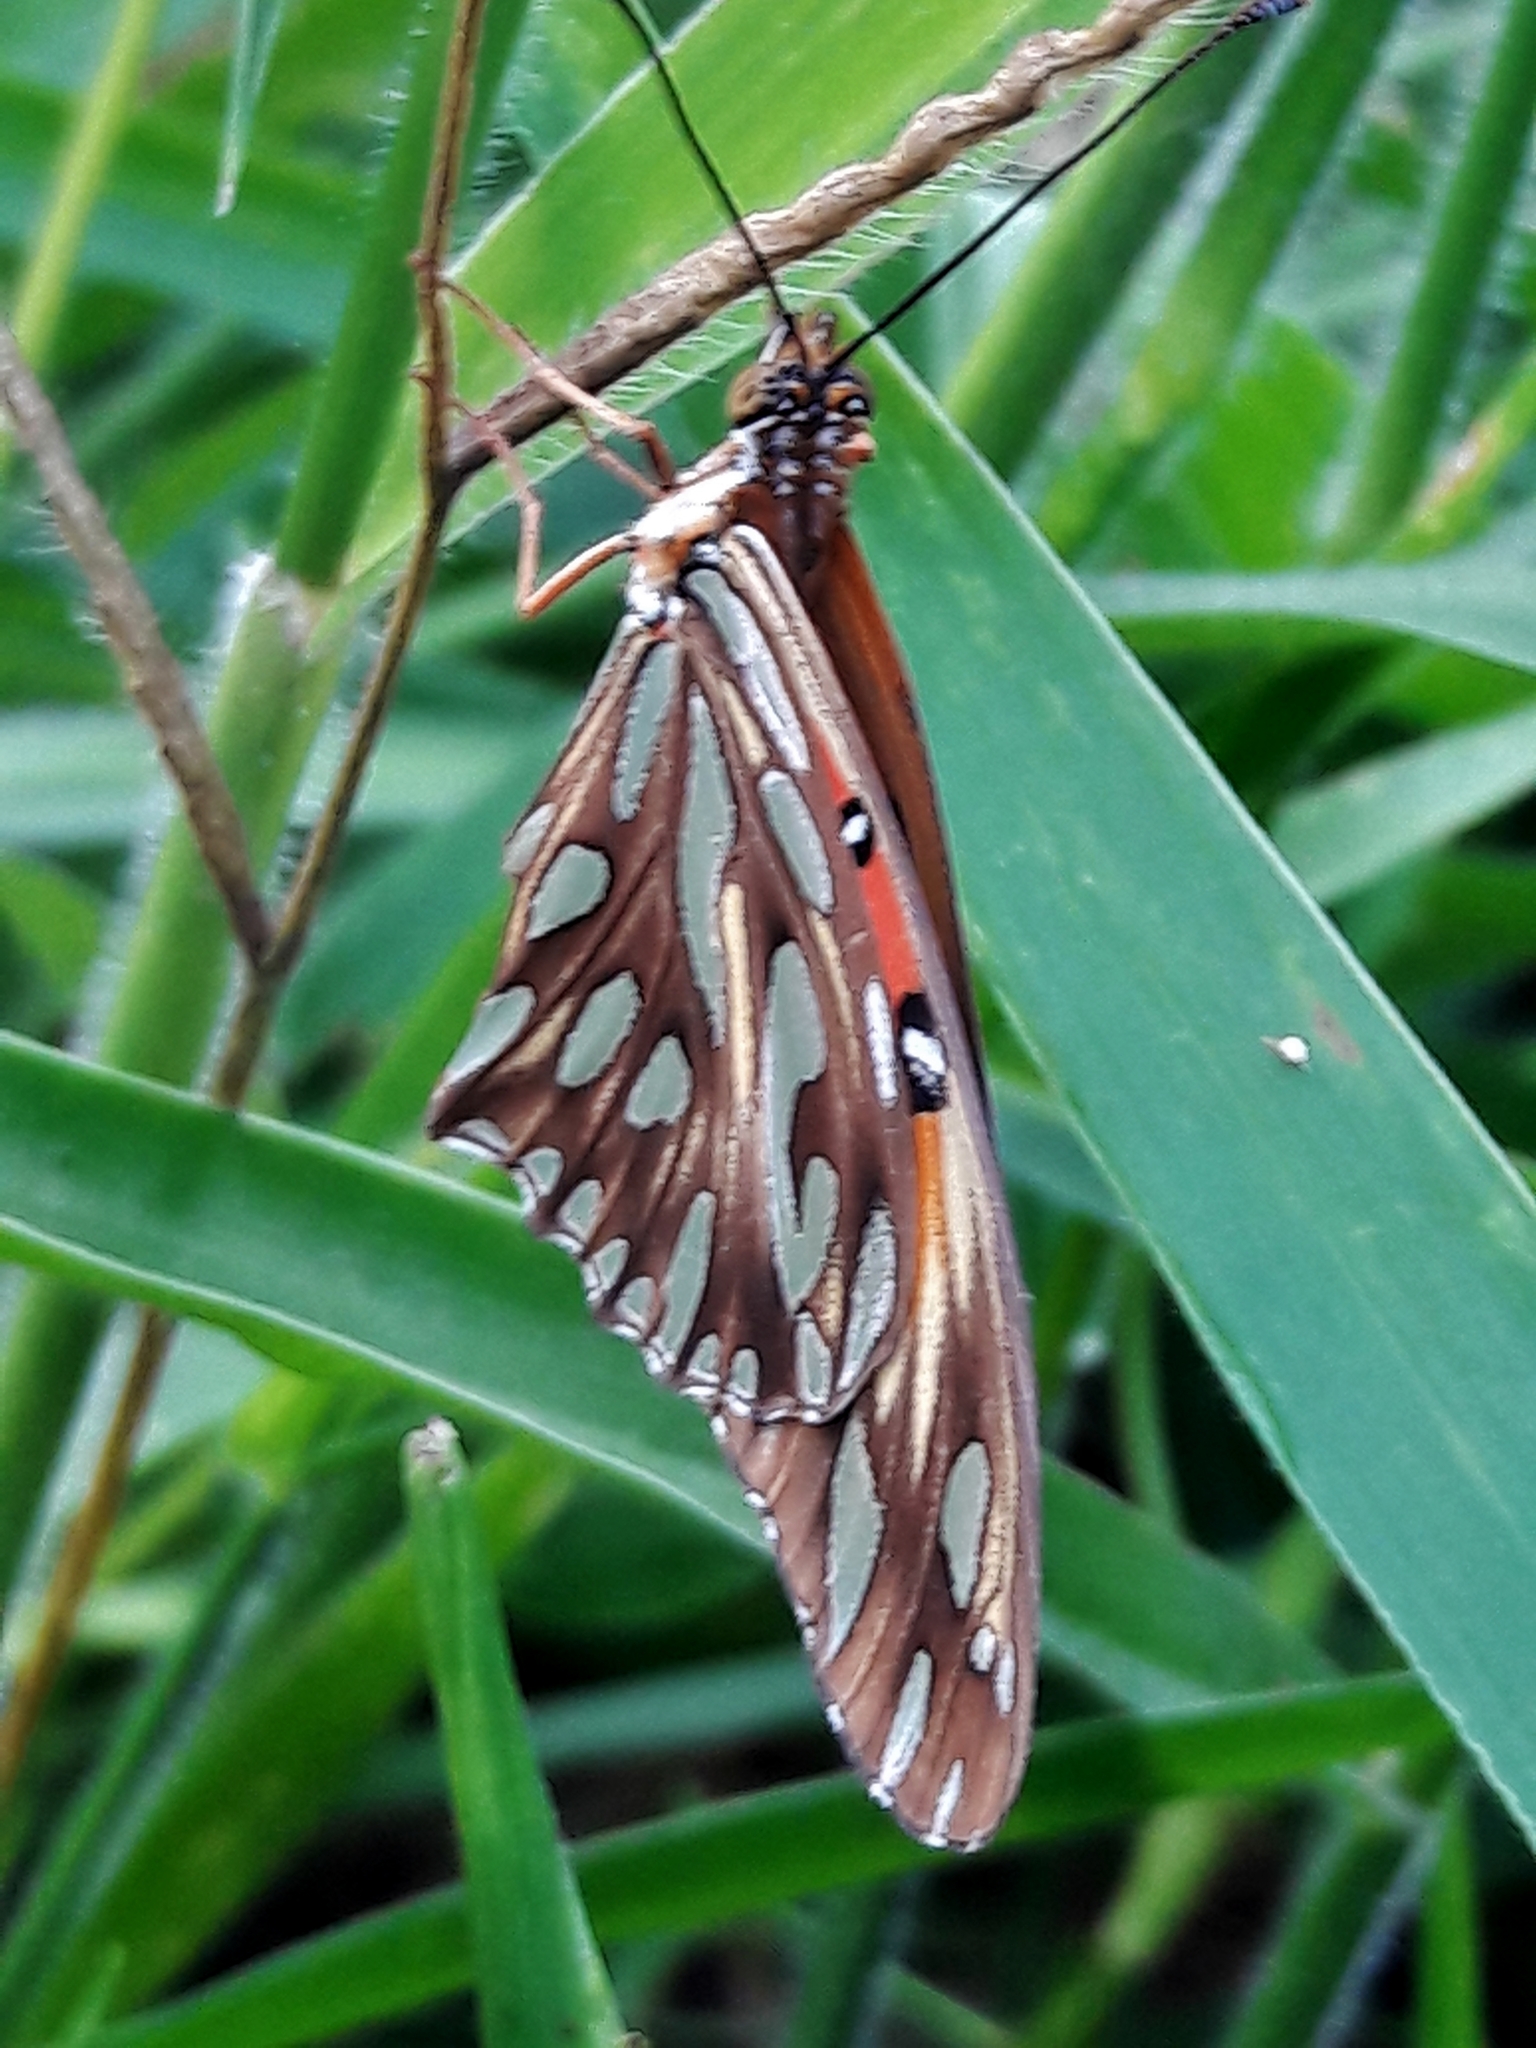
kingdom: Animalia
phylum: Arthropoda
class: Insecta
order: Lepidoptera
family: Nymphalidae
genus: Dione
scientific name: Dione vanillae
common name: Gulf fritillary
